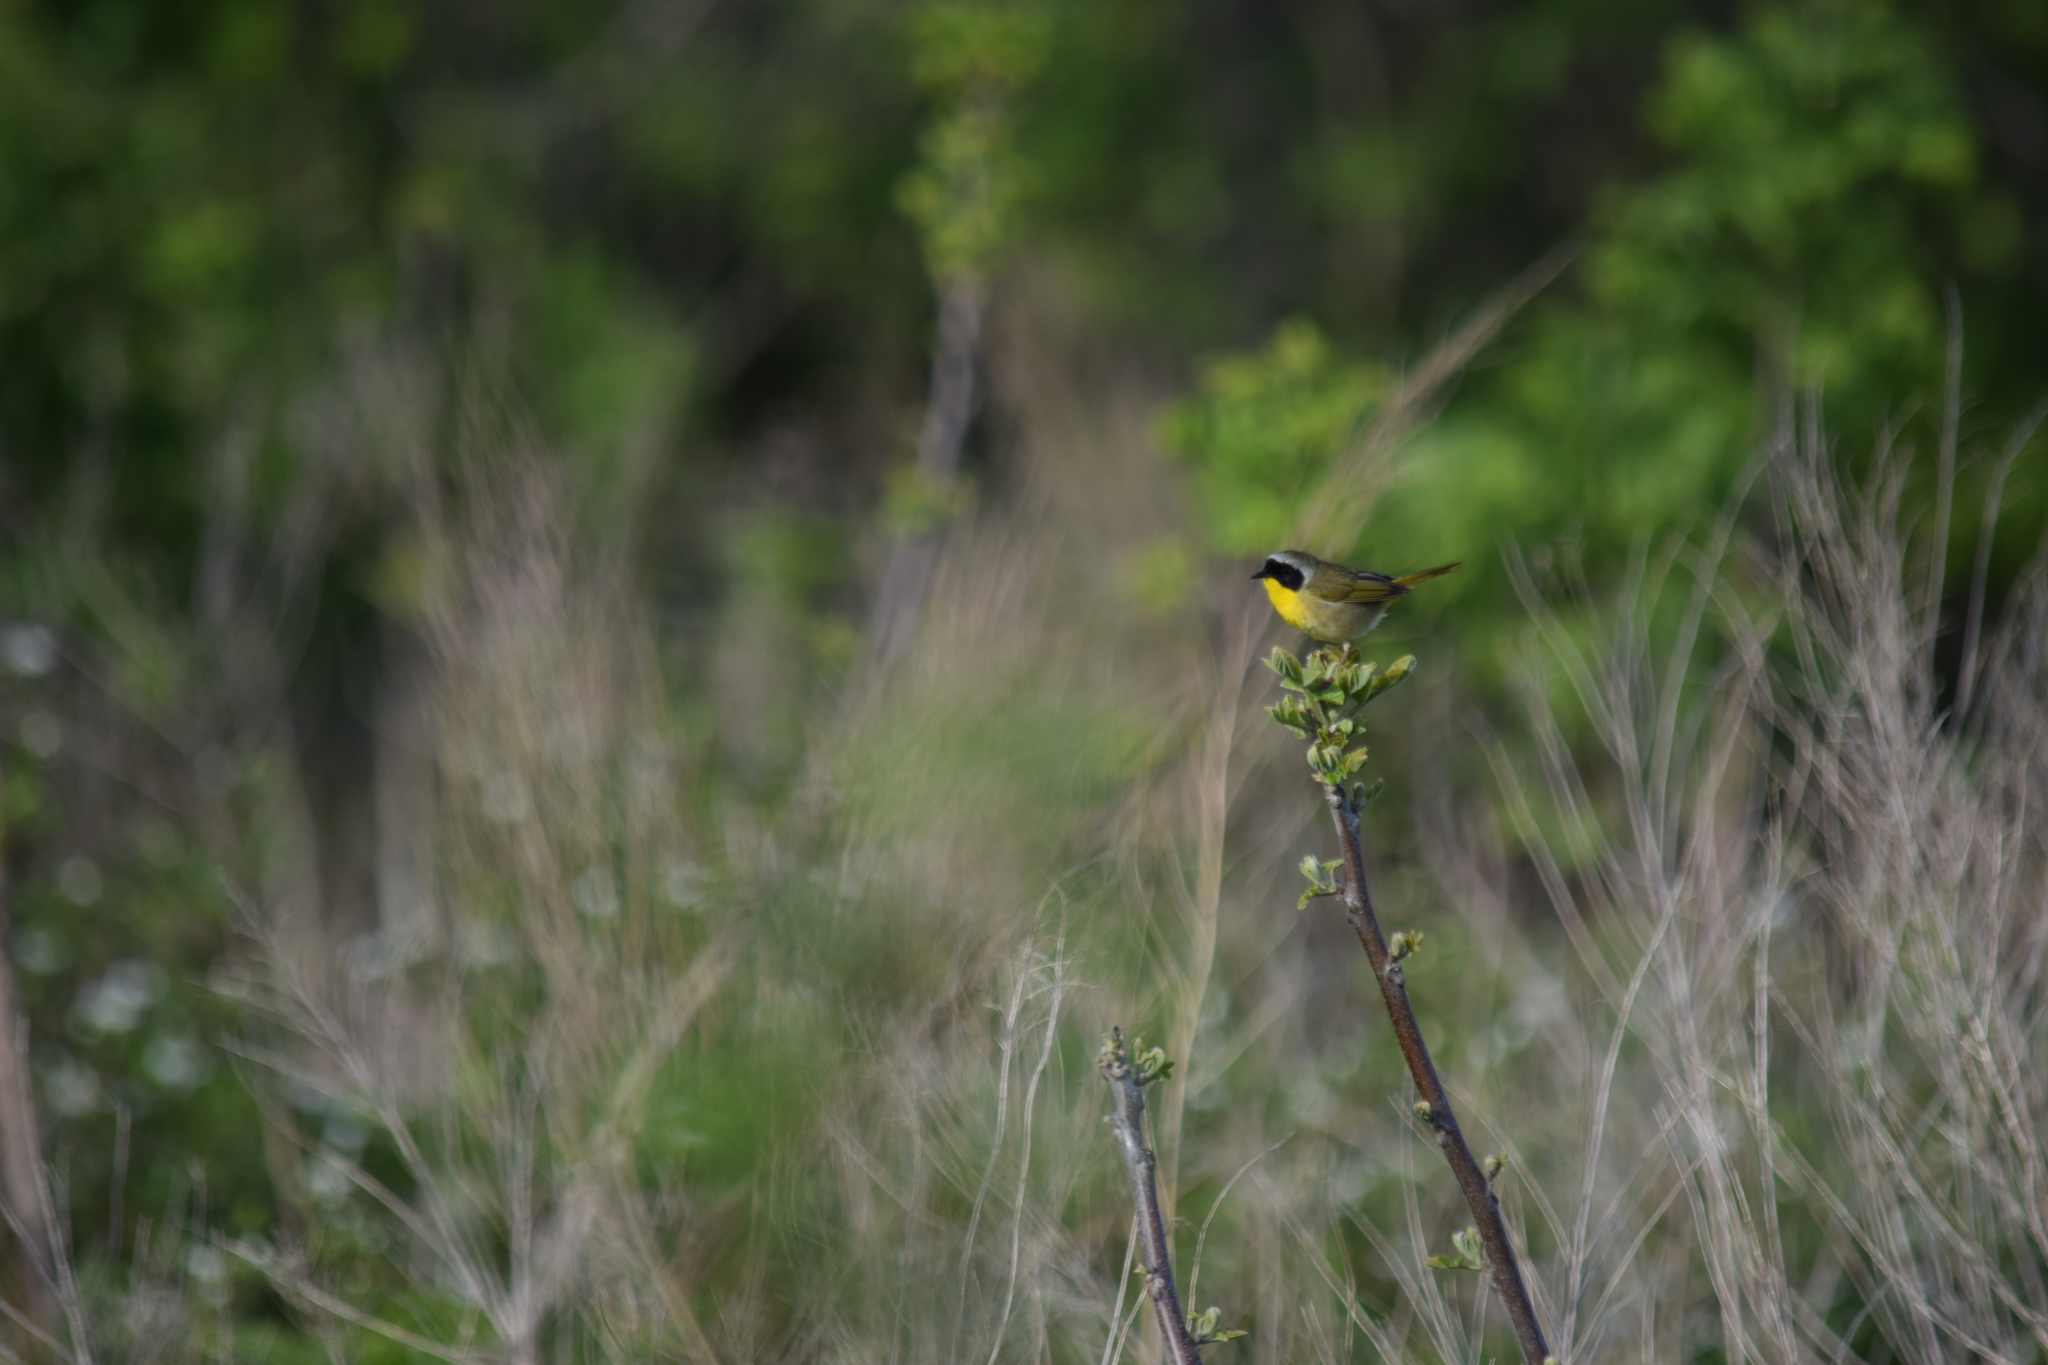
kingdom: Animalia
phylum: Chordata
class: Aves
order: Passeriformes
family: Parulidae
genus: Geothlypis
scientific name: Geothlypis trichas
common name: Common yellowthroat
